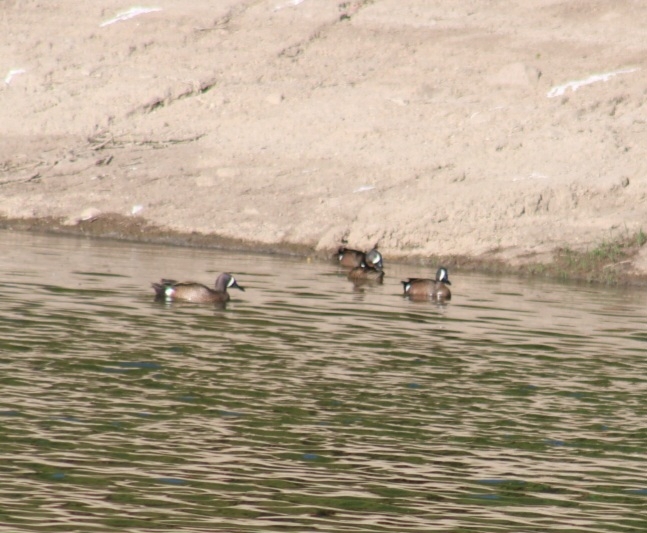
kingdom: Animalia
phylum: Chordata
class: Aves
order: Anseriformes
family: Anatidae
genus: Spatula
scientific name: Spatula discors
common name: Blue-winged teal
